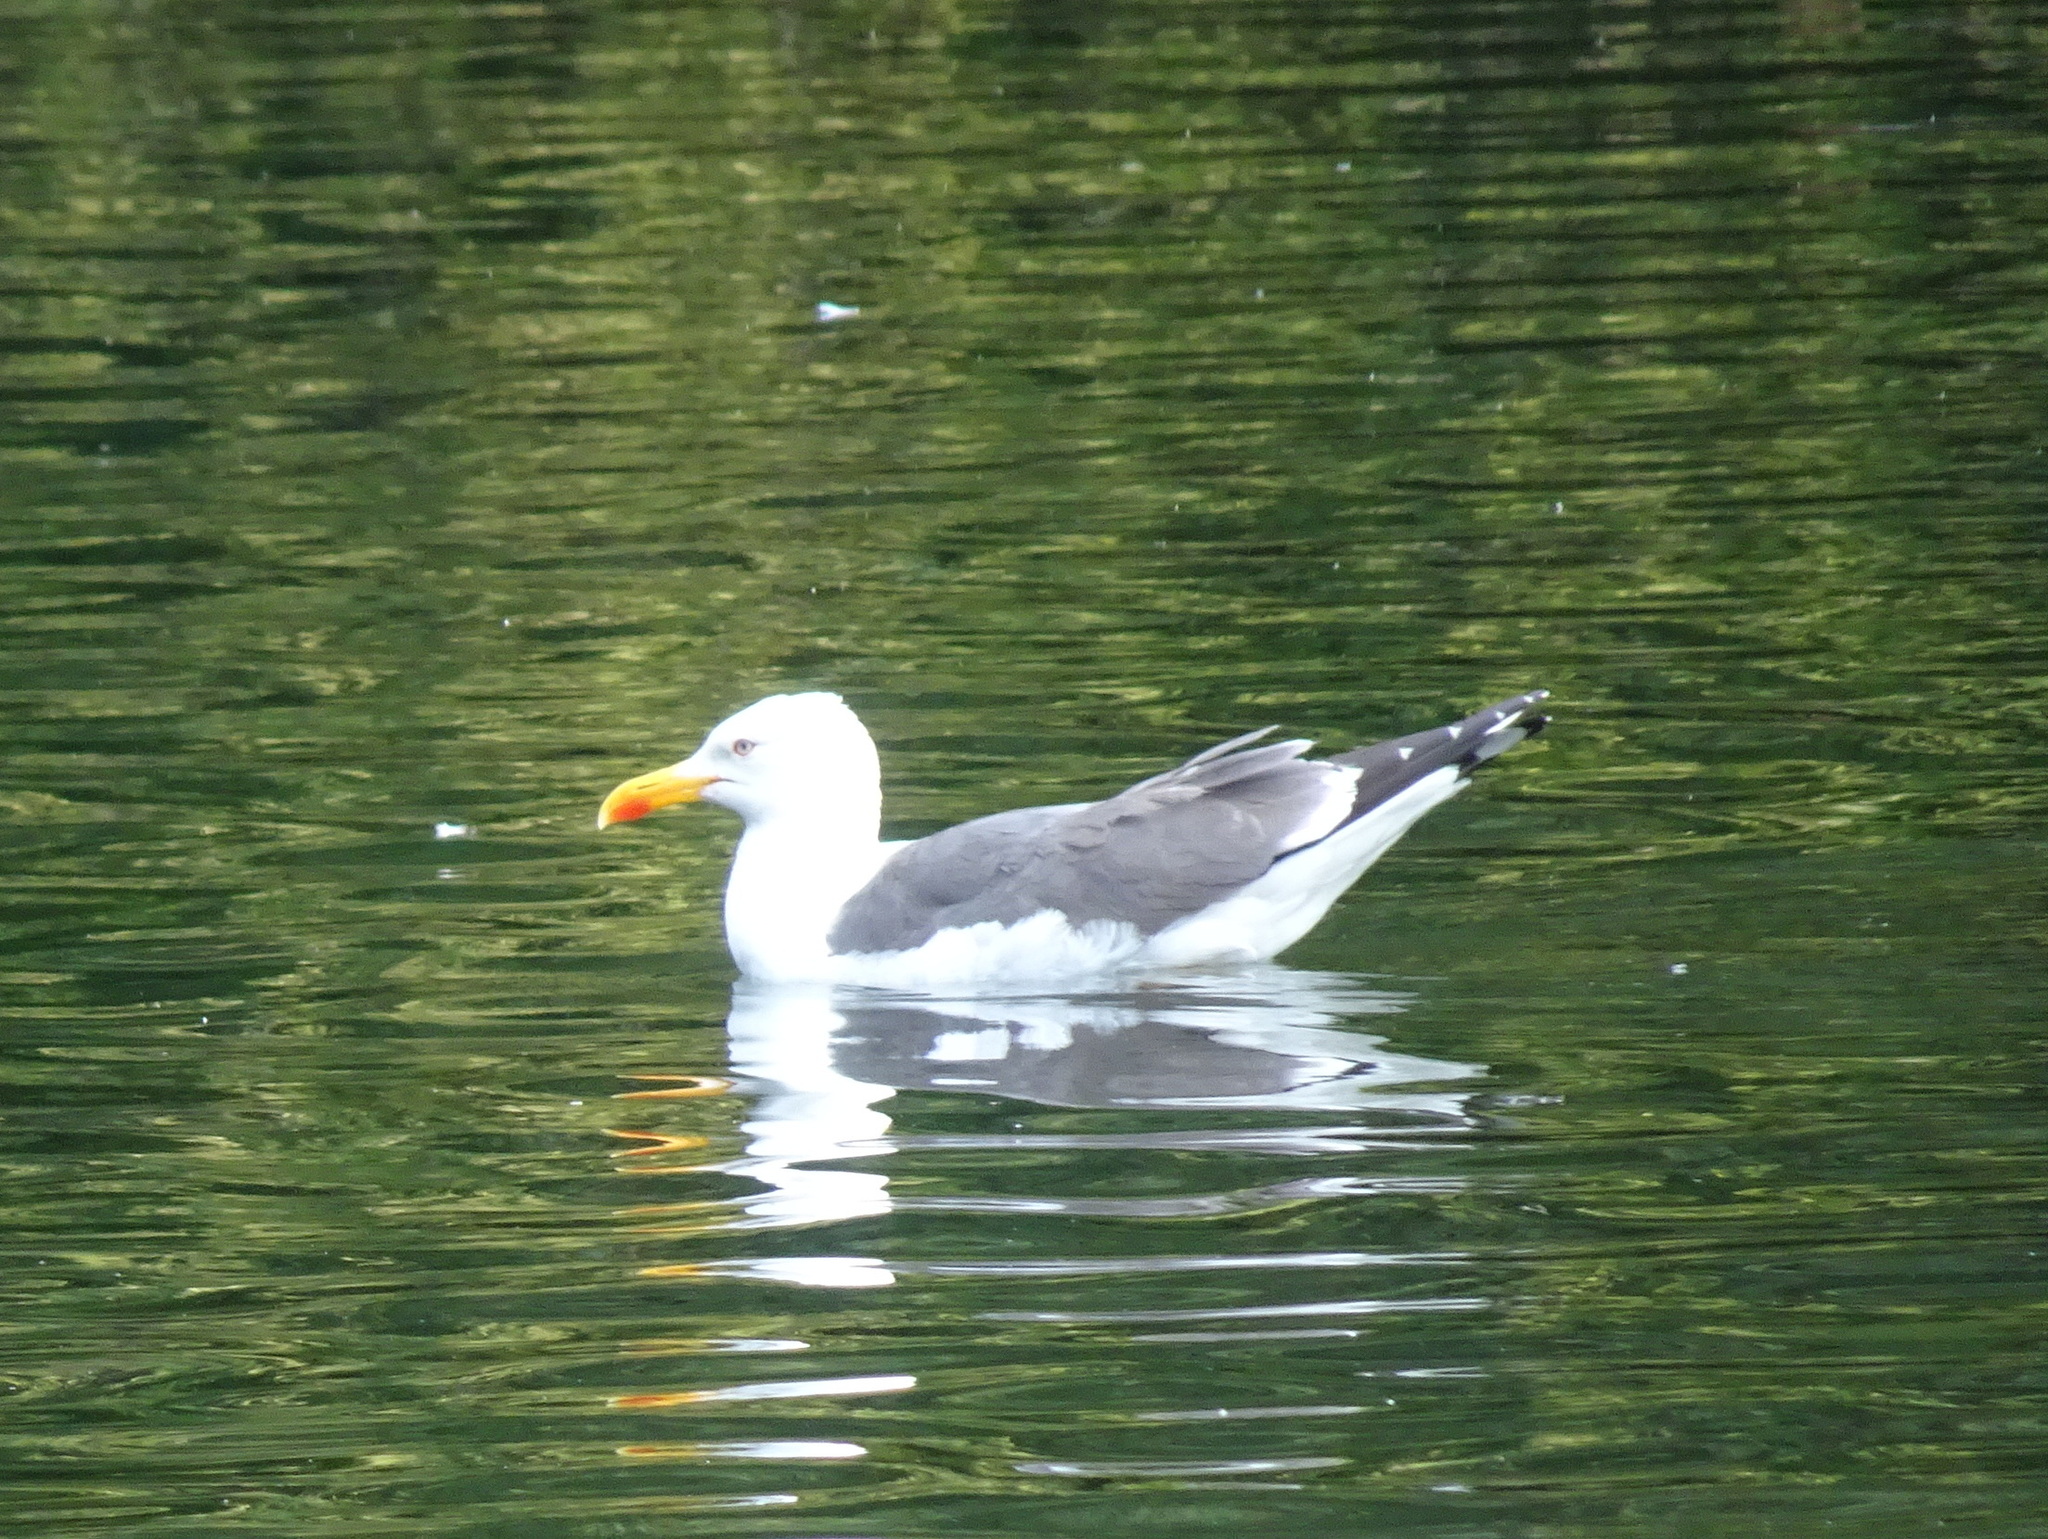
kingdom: Animalia
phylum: Chordata
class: Aves
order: Charadriiformes
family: Laridae
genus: Larus
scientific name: Larus fuscus
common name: Lesser black-backed gull
